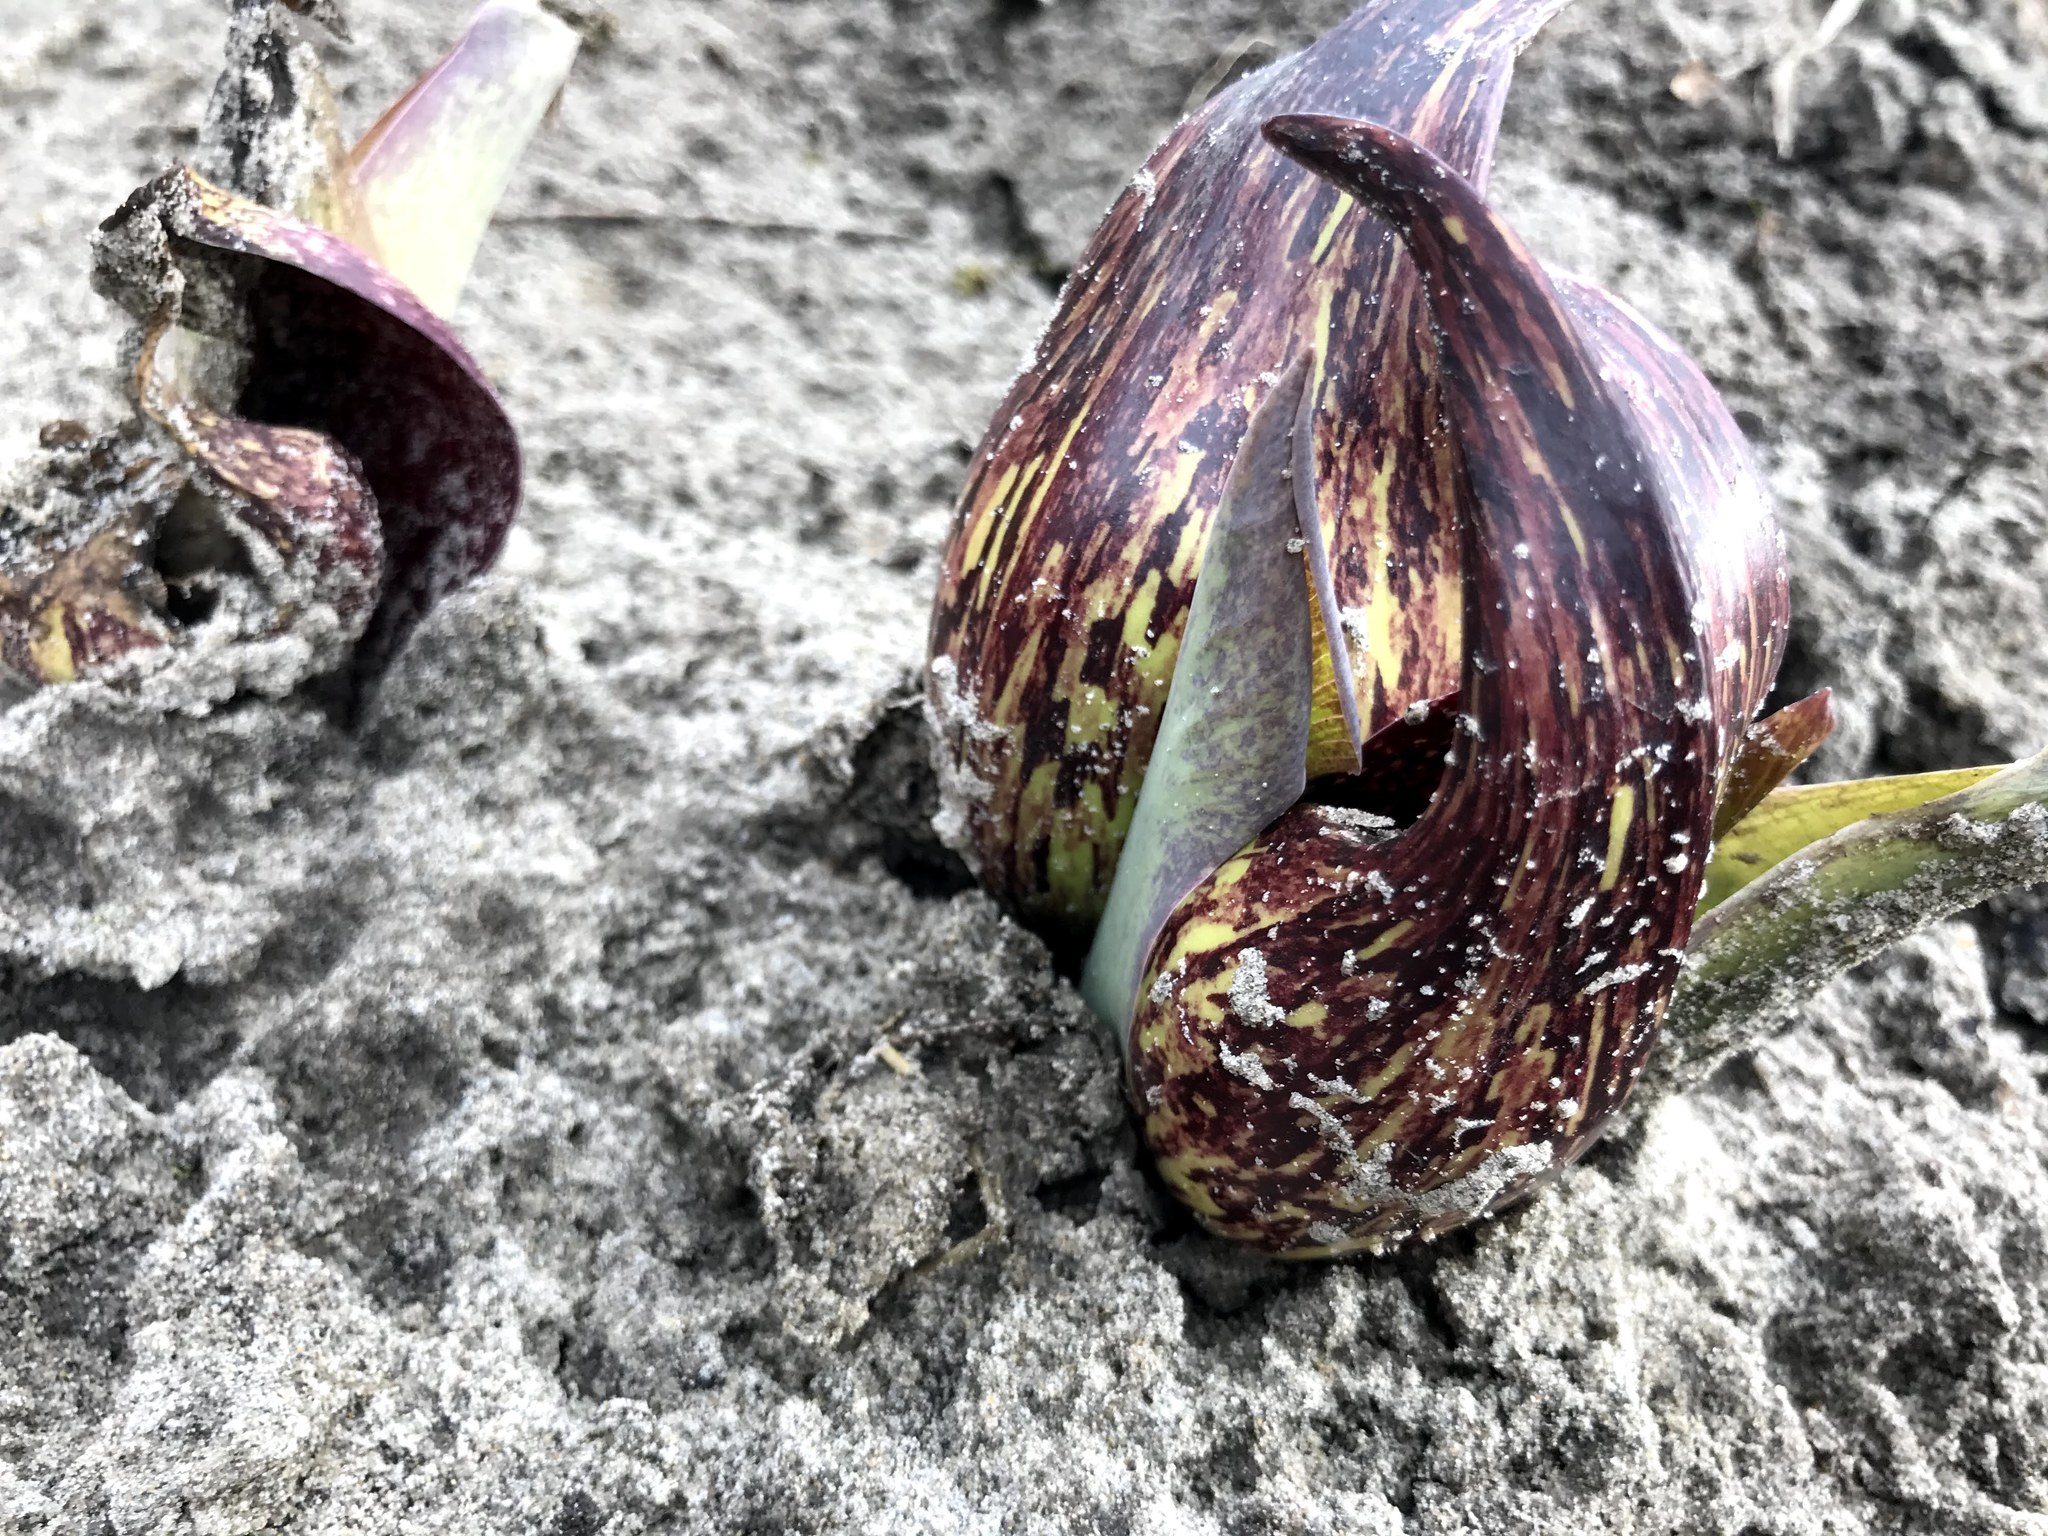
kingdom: Plantae
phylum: Tracheophyta
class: Liliopsida
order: Alismatales
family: Araceae
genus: Symplocarpus
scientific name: Symplocarpus foetidus
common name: Eastern skunk cabbage
